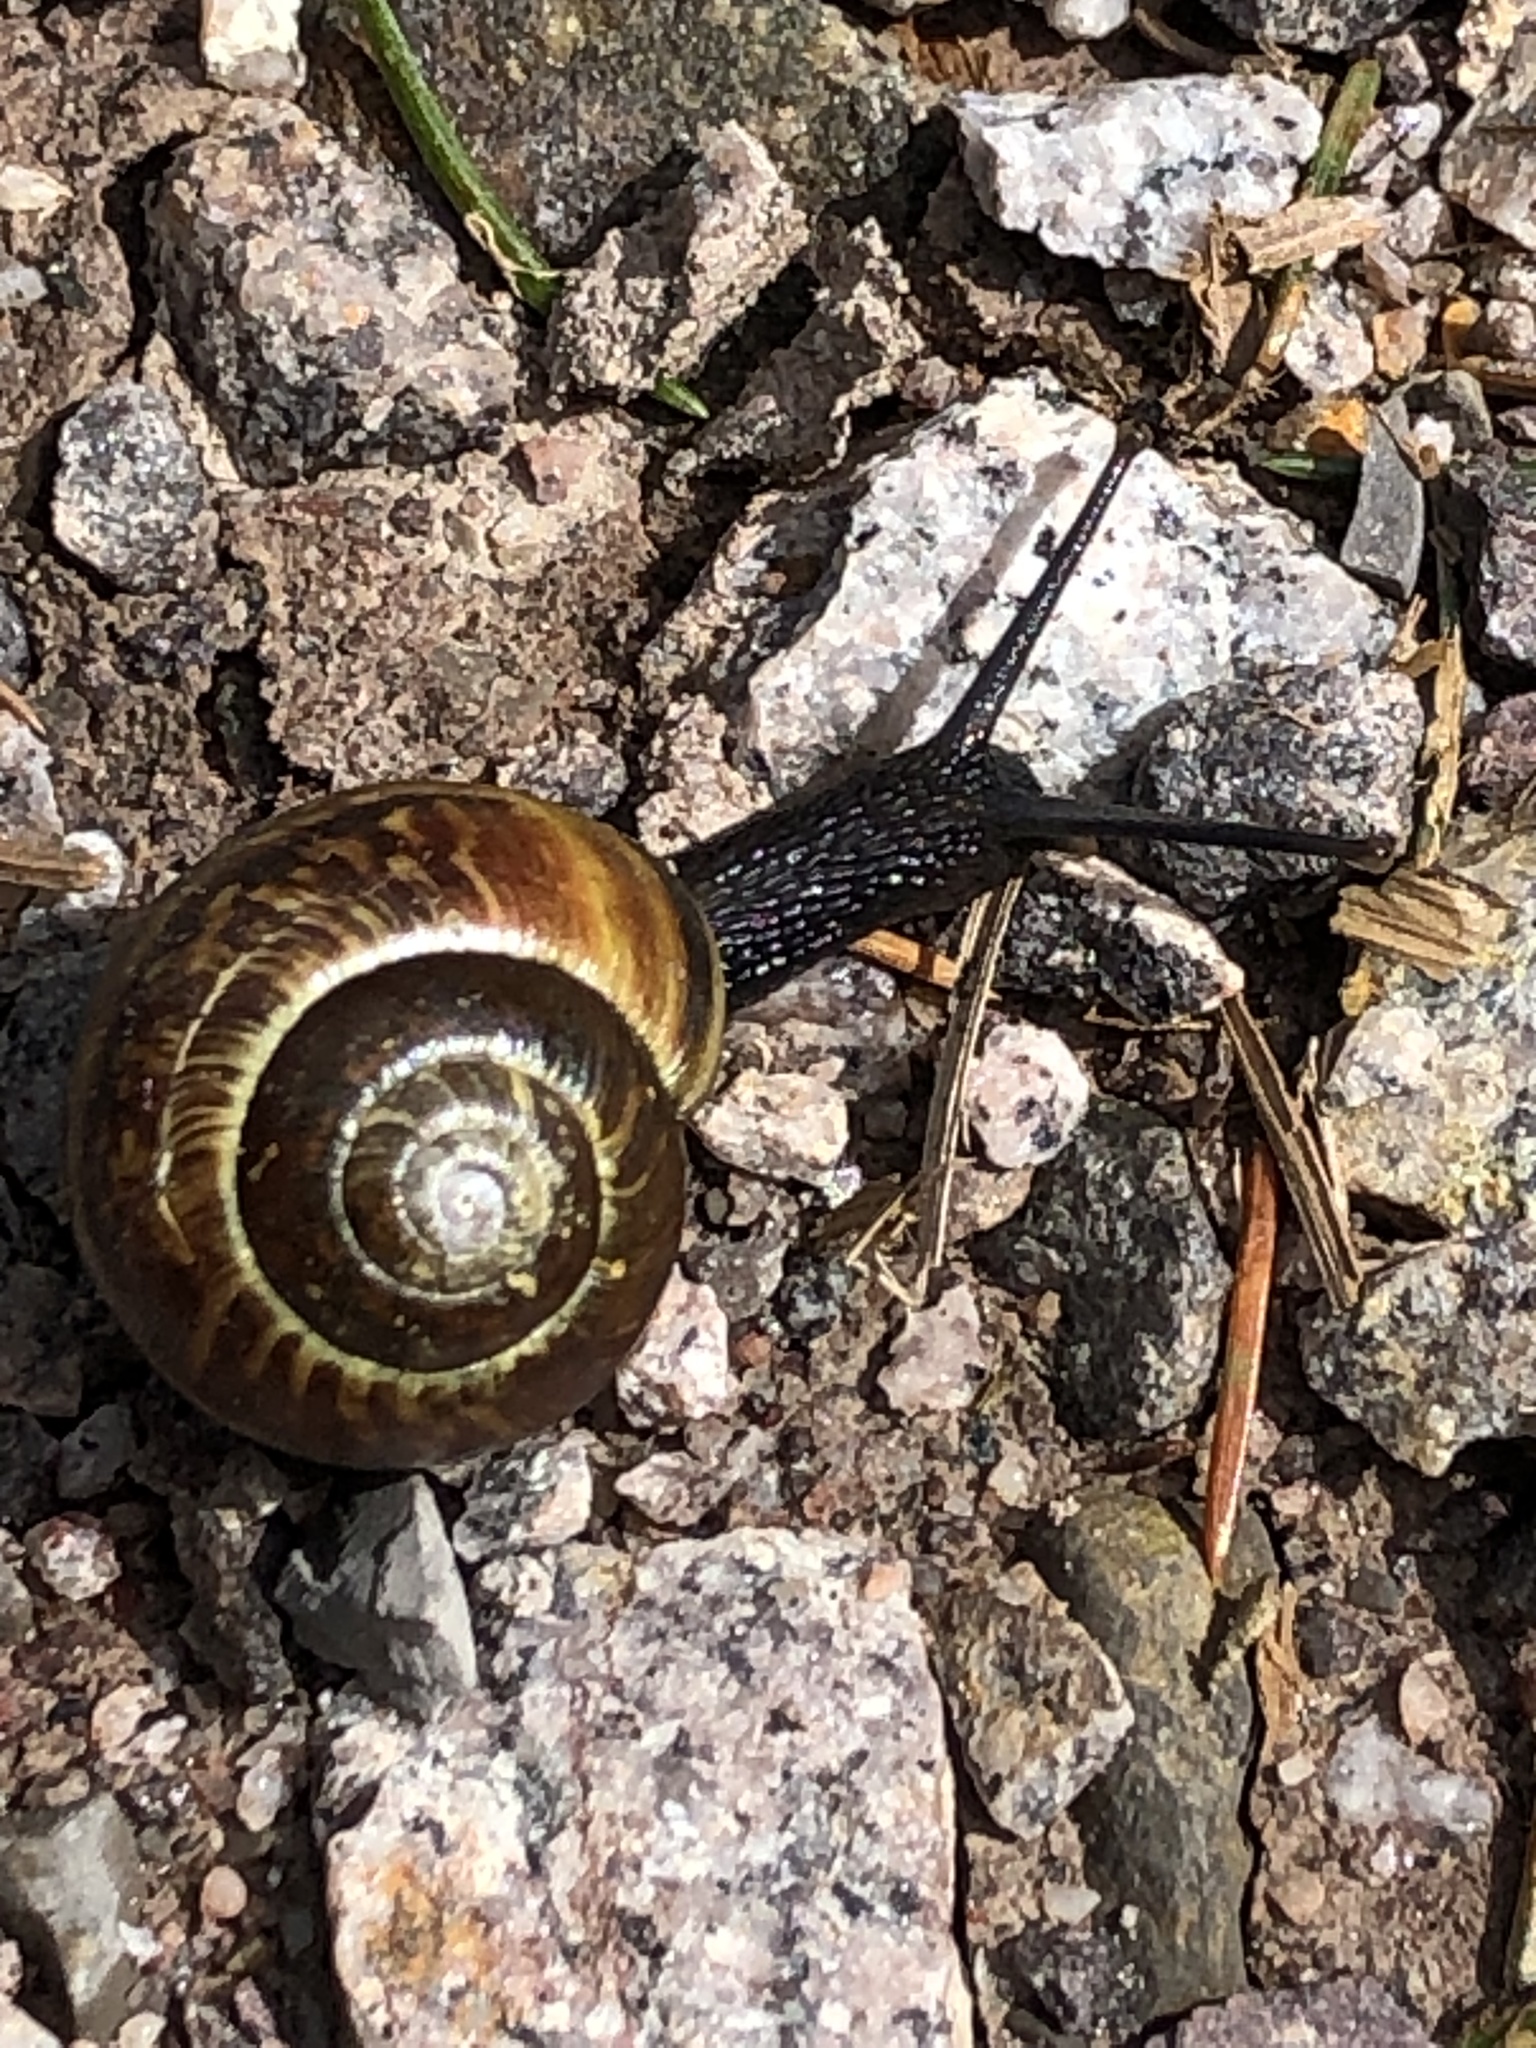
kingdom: Animalia
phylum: Mollusca
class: Gastropoda
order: Stylommatophora
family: Helicidae
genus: Arianta
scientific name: Arianta arbustorum
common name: Copse snail
